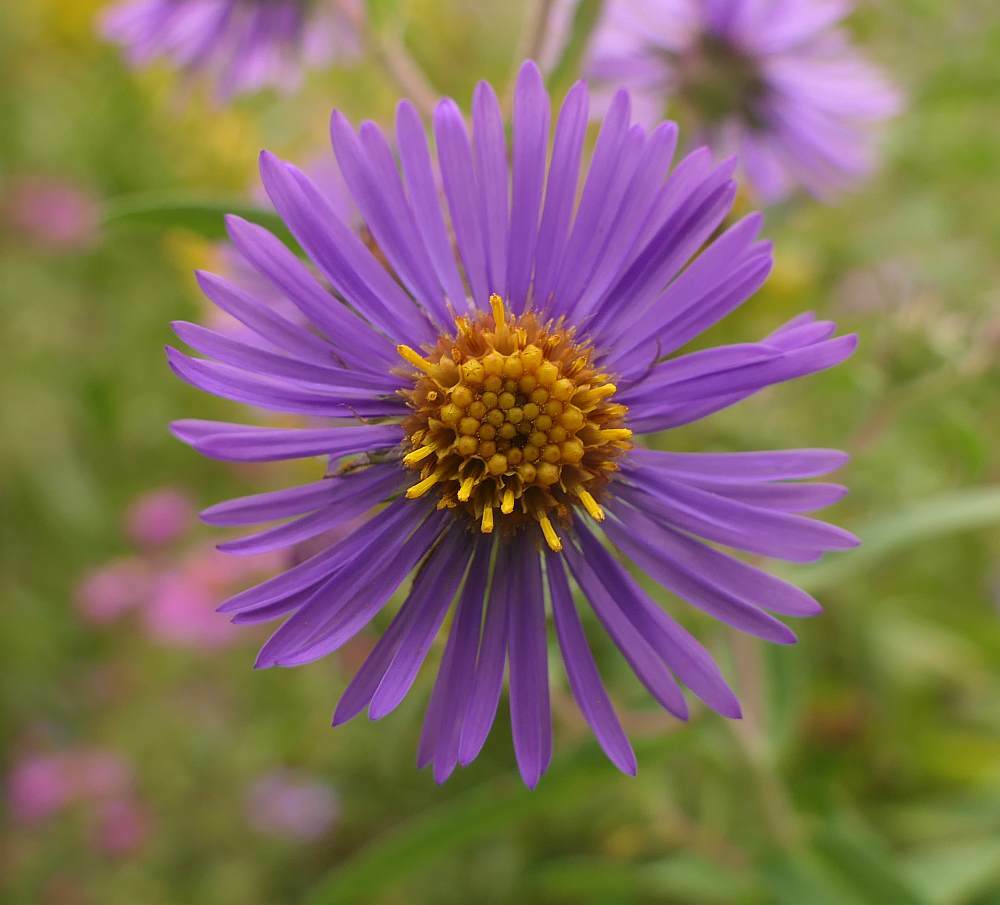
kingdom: Plantae
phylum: Tracheophyta
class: Magnoliopsida
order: Asterales
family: Asteraceae
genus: Symphyotrichum
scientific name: Symphyotrichum novae-angliae
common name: Michaelmas daisy
